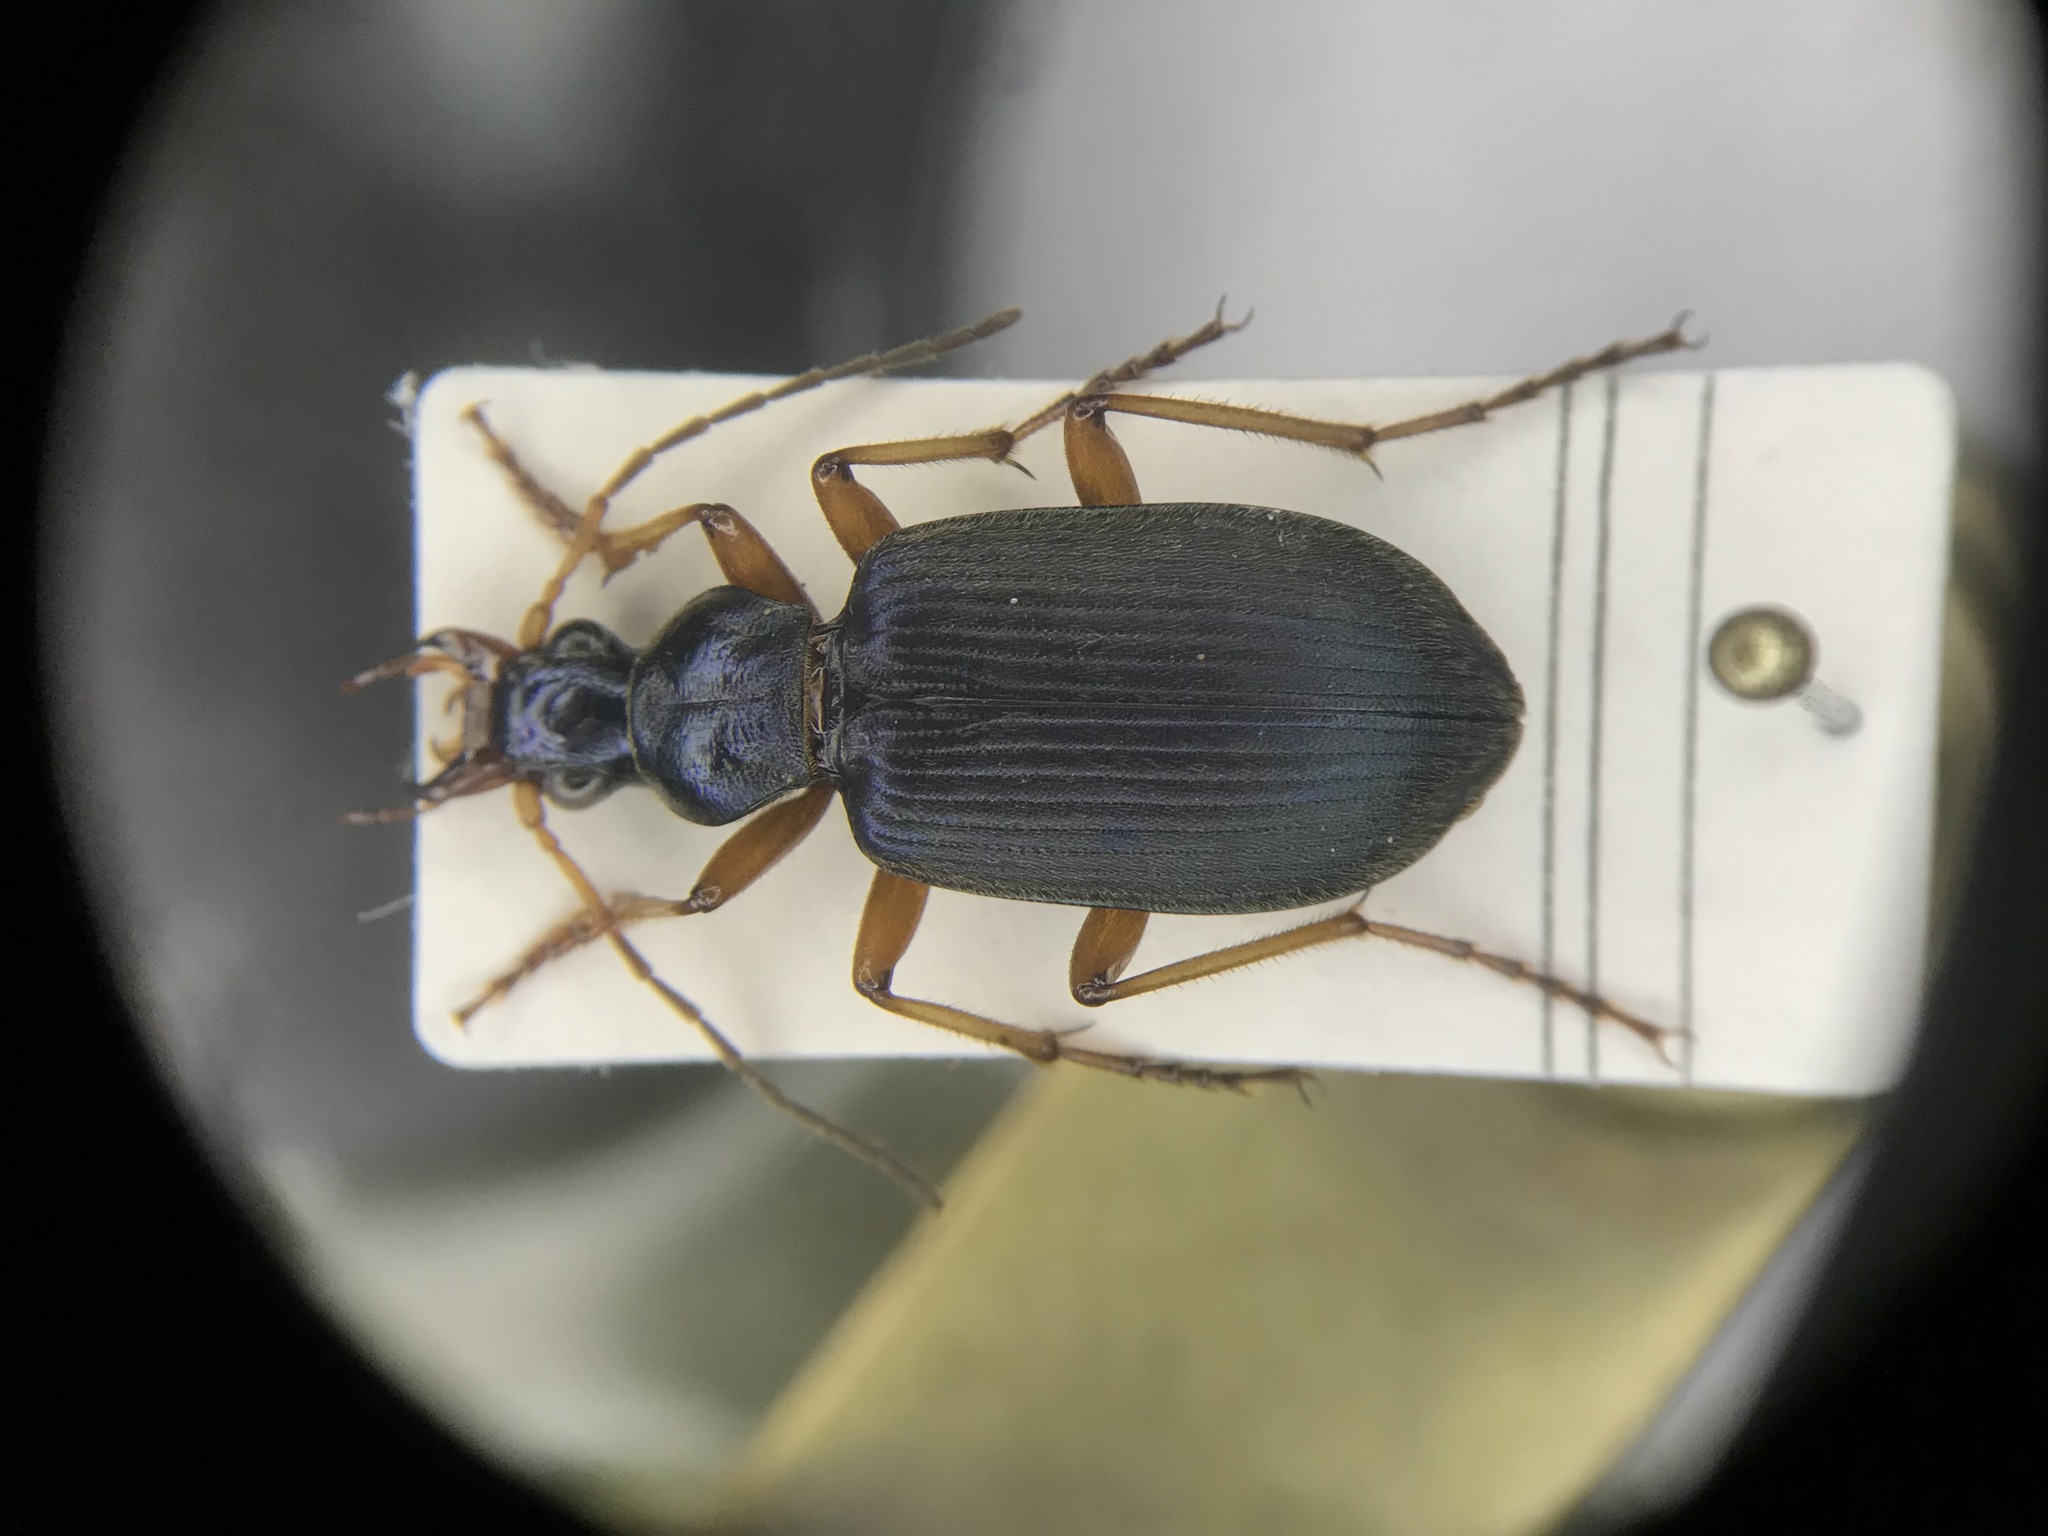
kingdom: Animalia
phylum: Arthropoda
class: Insecta
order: Coleoptera
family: Carabidae
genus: Chlaenius
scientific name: Chlaenius cordicollis
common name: Heart-necked chlaenius
